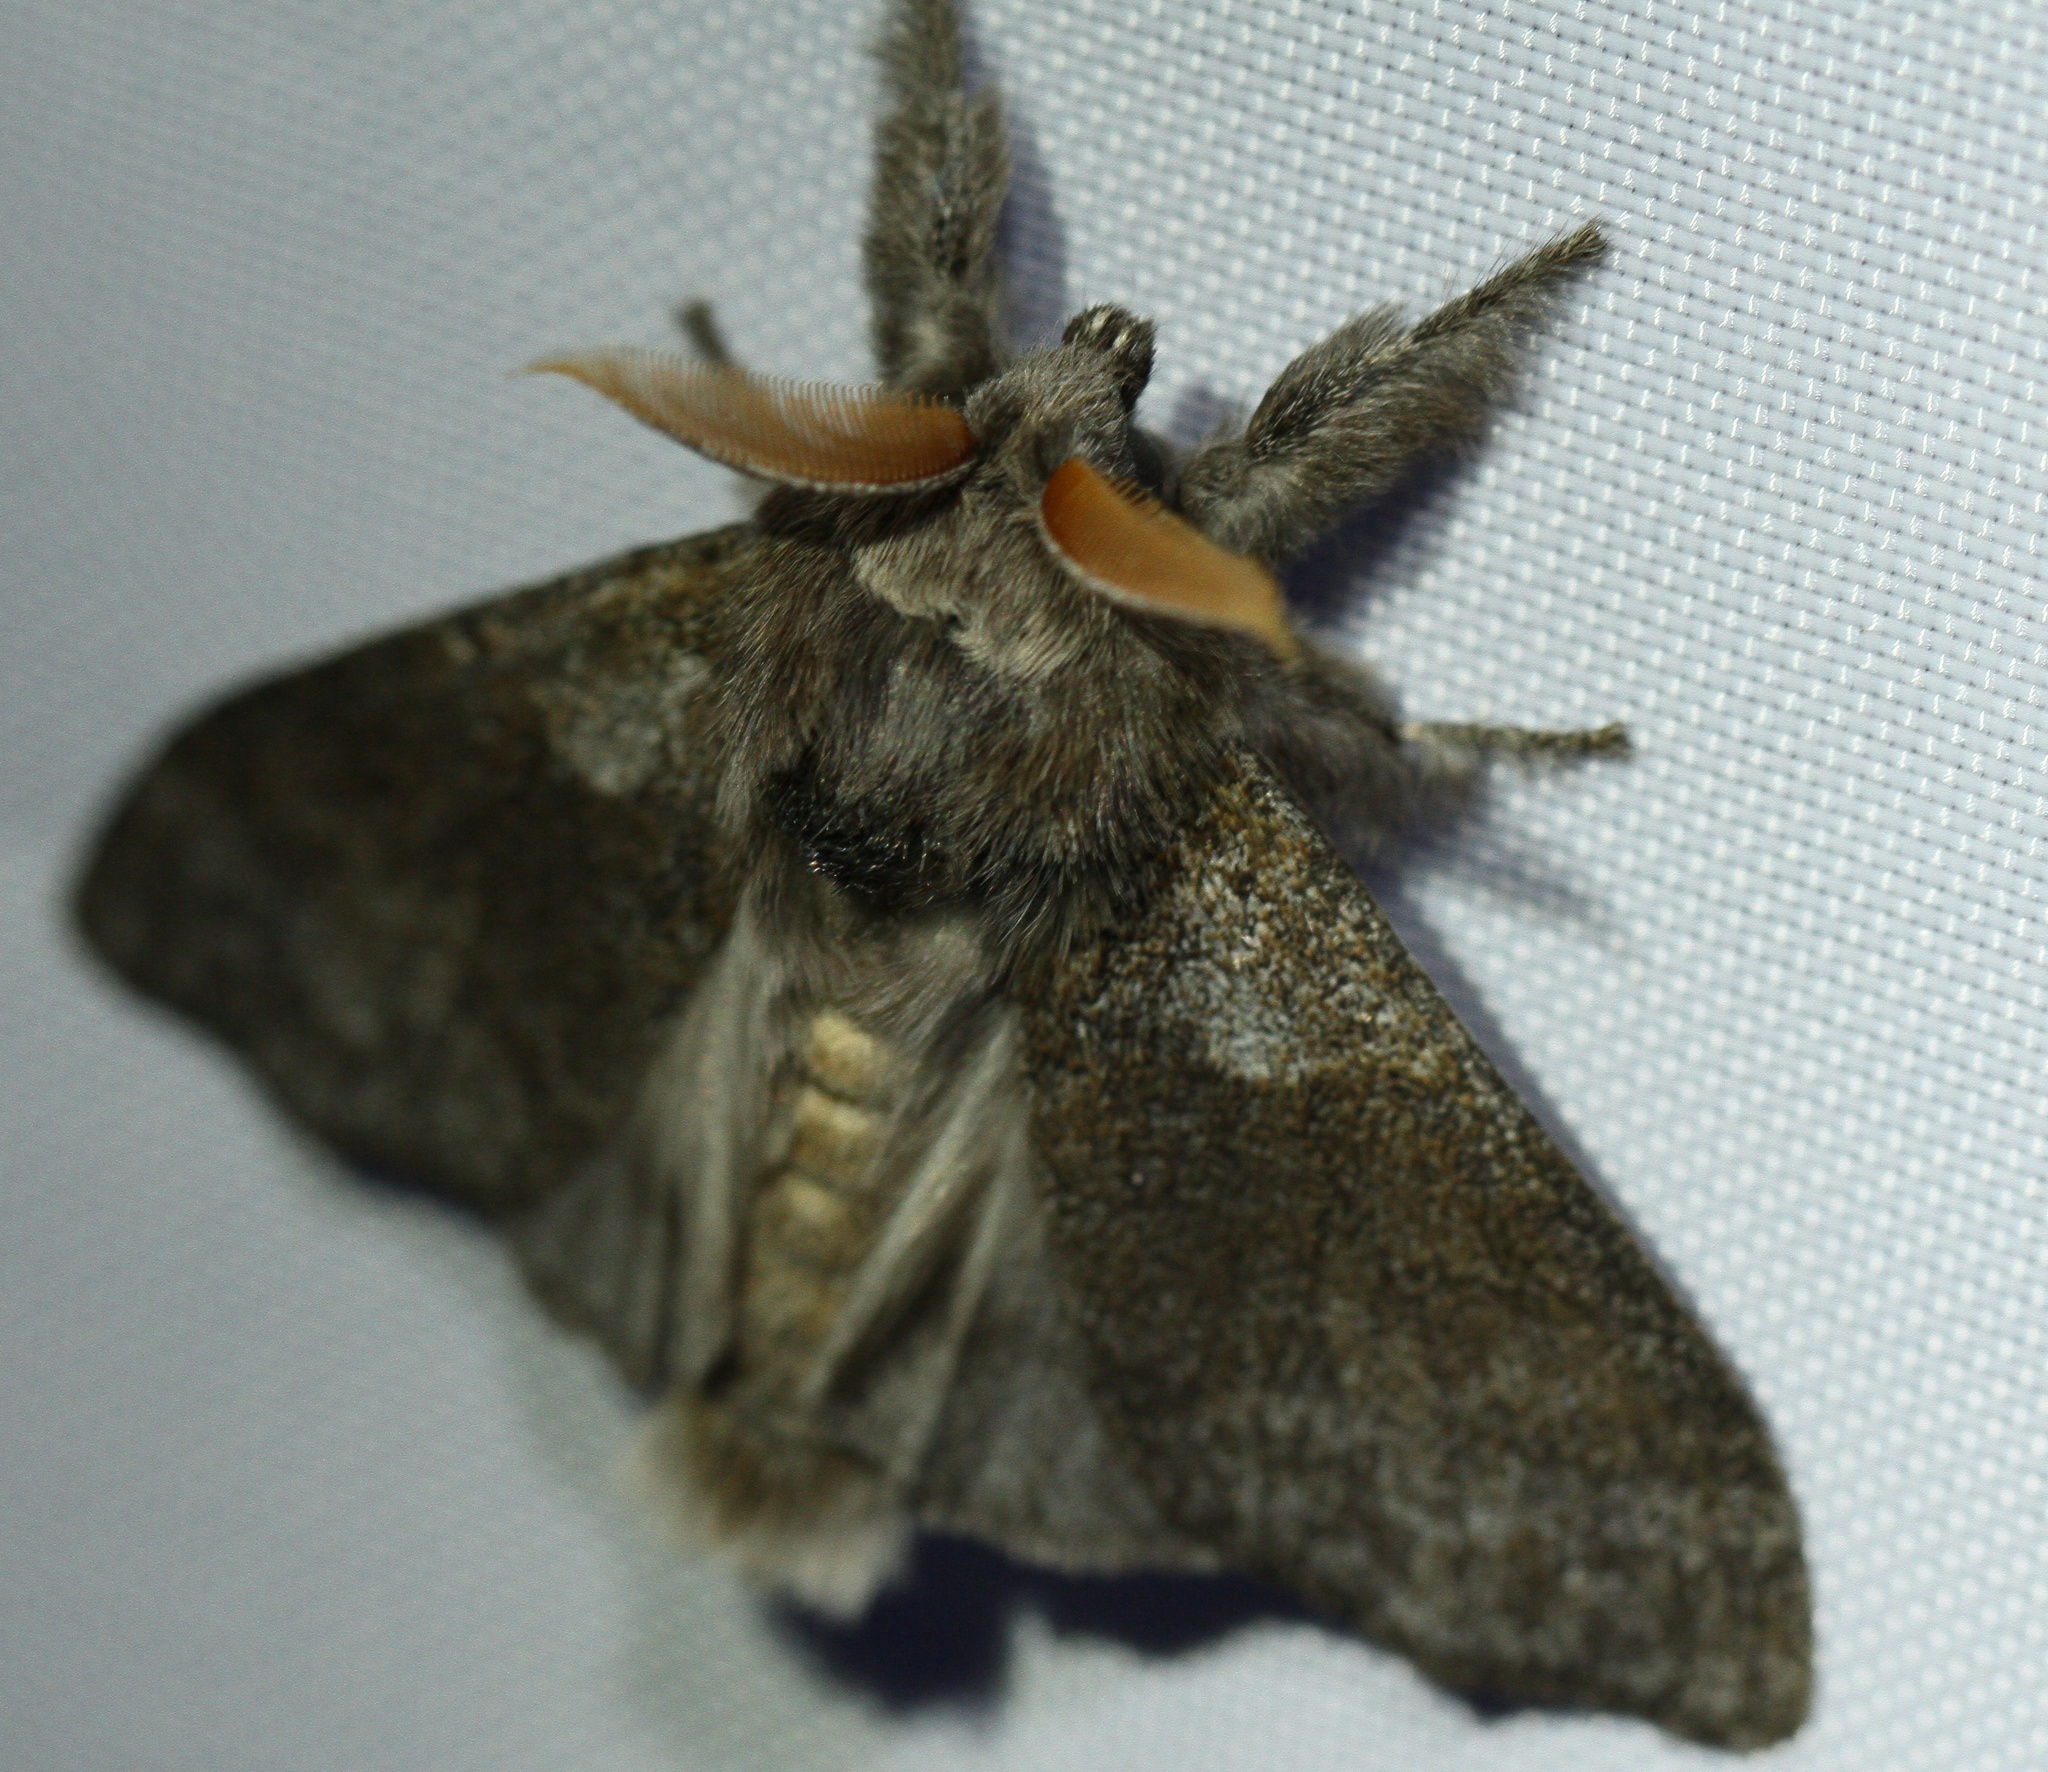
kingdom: Animalia
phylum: Arthropoda
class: Insecta
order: Lepidoptera
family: Erebidae
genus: Calliteara
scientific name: Calliteara pudibunda
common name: Pale tussock
